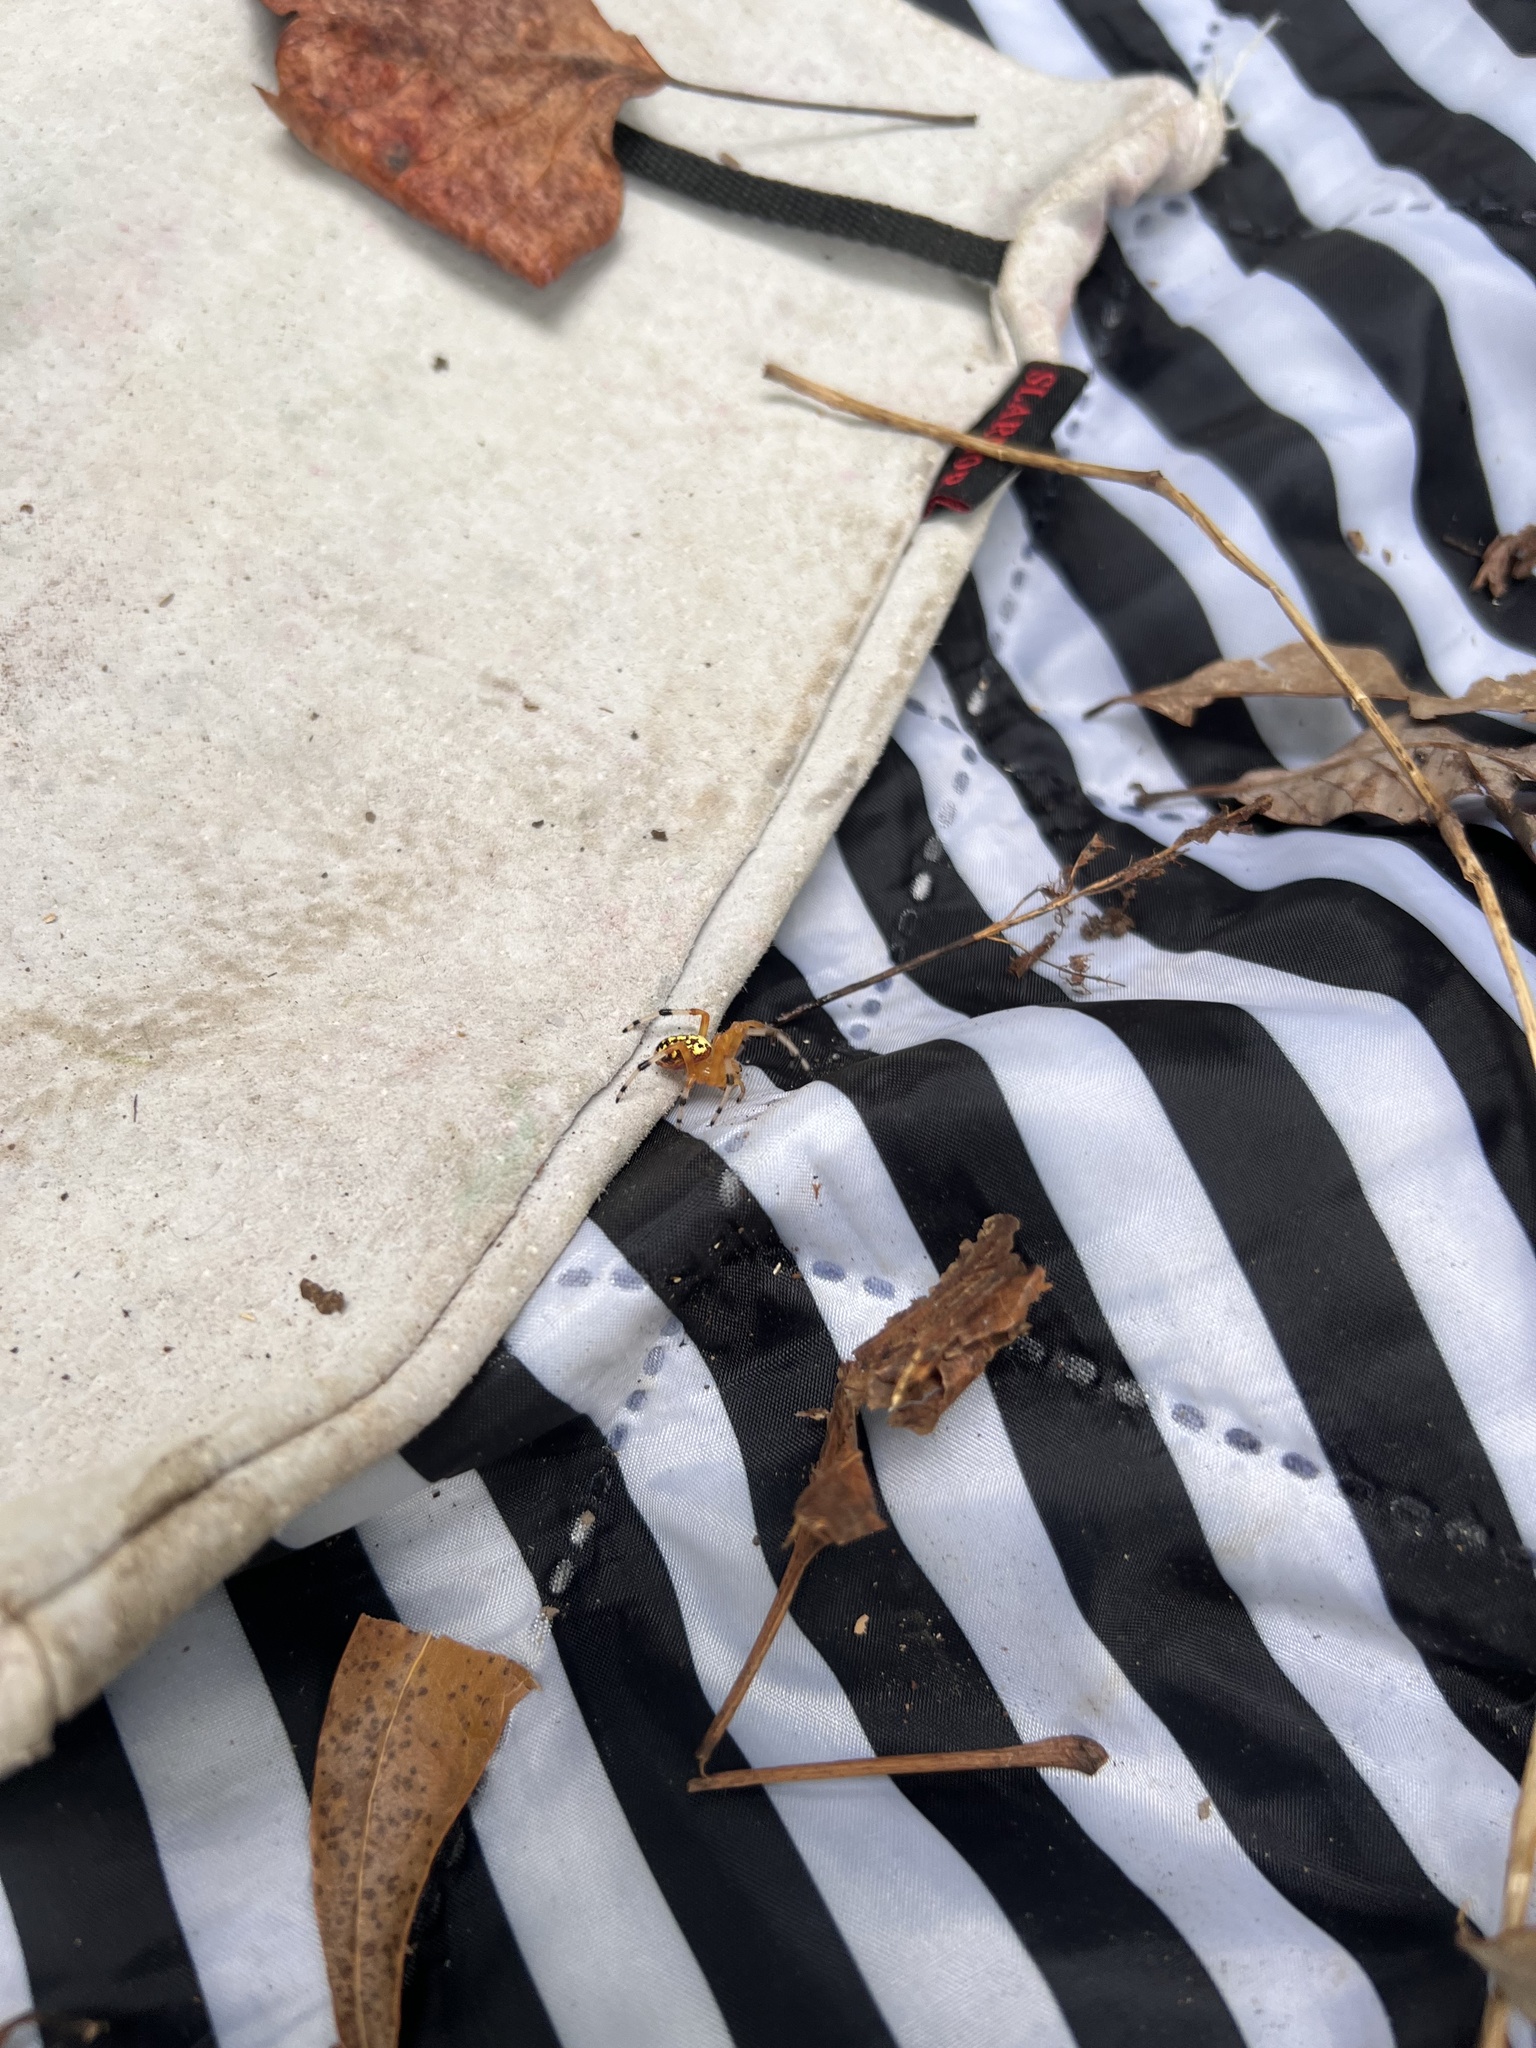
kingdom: Animalia
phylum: Arthropoda
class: Arachnida
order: Araneae
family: Araneidae
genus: Araneus
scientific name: Araneus marmoreus
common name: Marbled orbweaver
